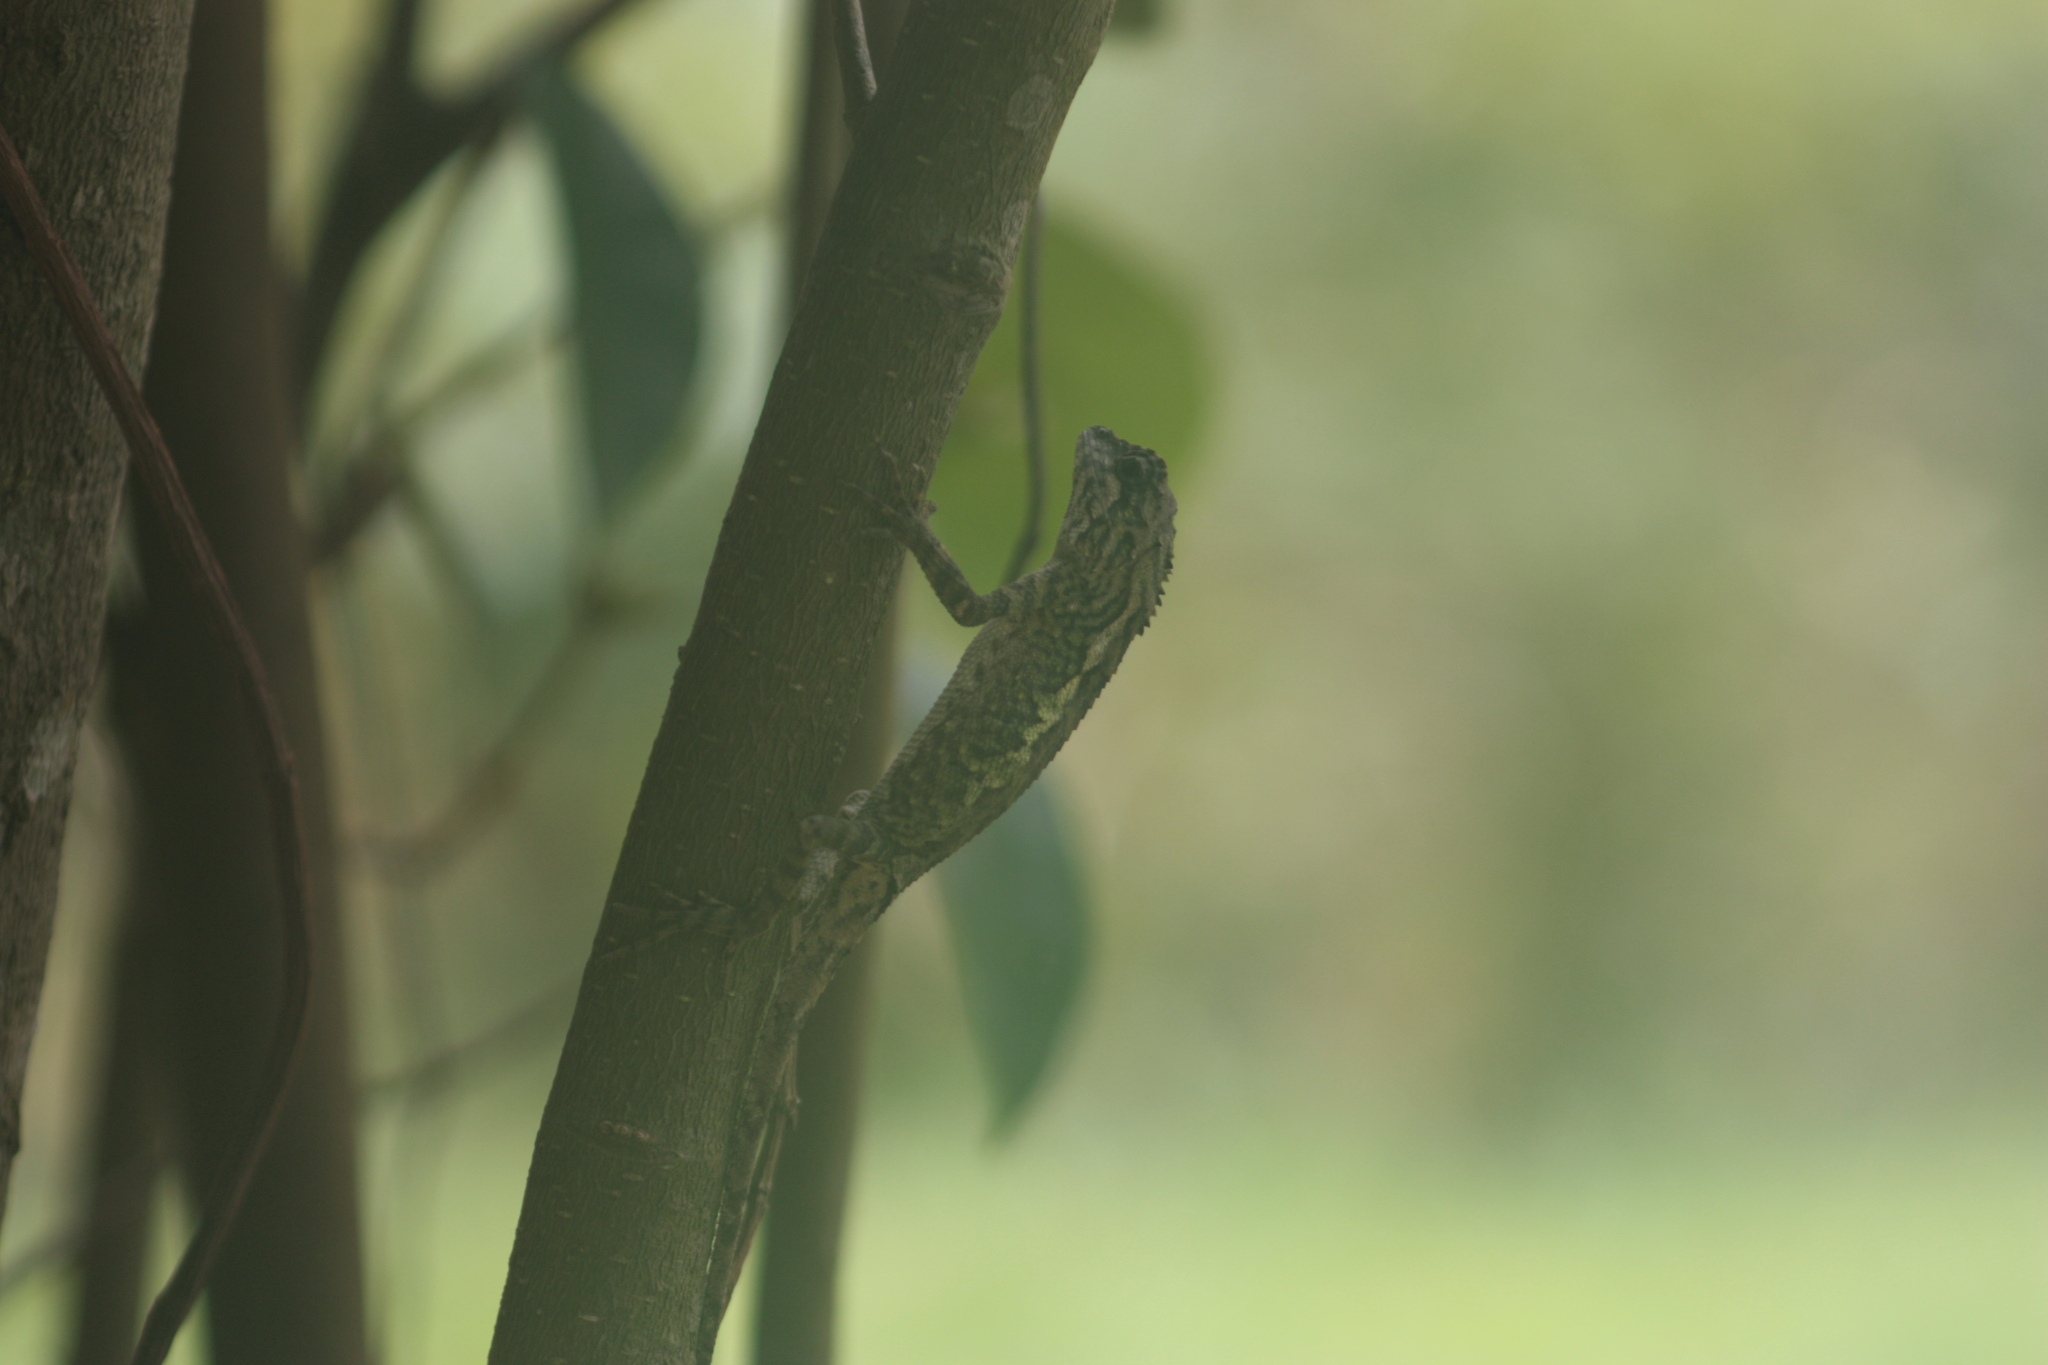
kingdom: Animalia
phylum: Chordata
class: Squamata
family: Agamidae
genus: Diploderma
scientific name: Diploderma swinhonis
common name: Taiwan japalure
